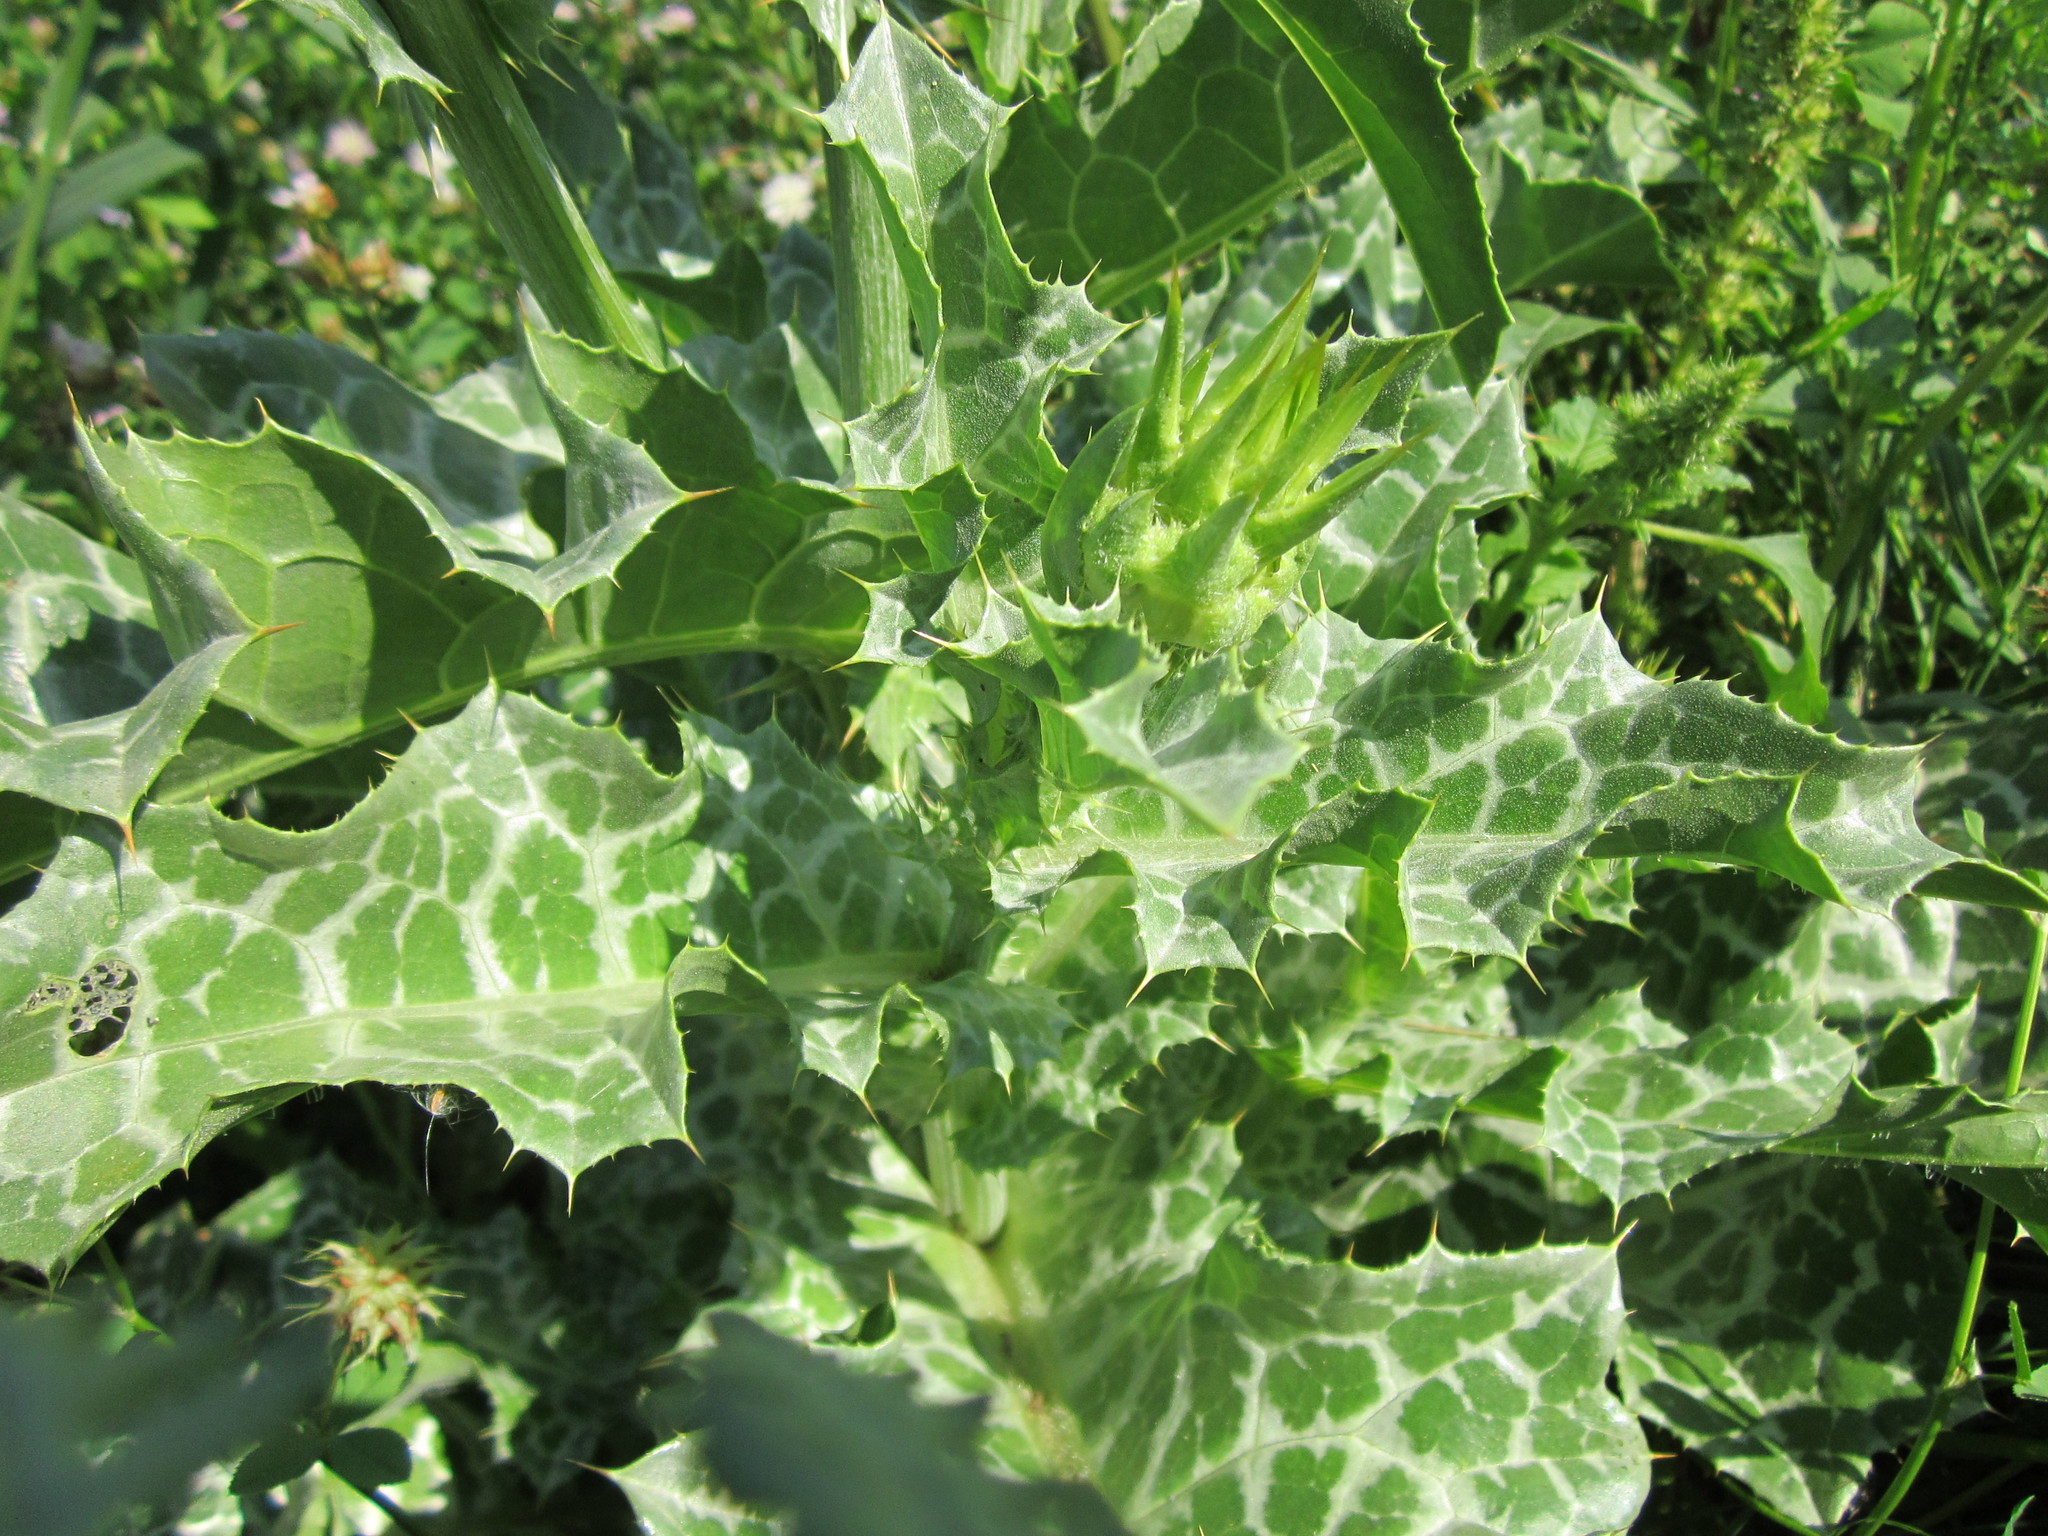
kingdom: Plantae
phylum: Tracheophyta
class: Magnoliopsida
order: Asterales
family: Asteraceae
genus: Silybum
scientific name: Silybum marianum
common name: Milk thistle
